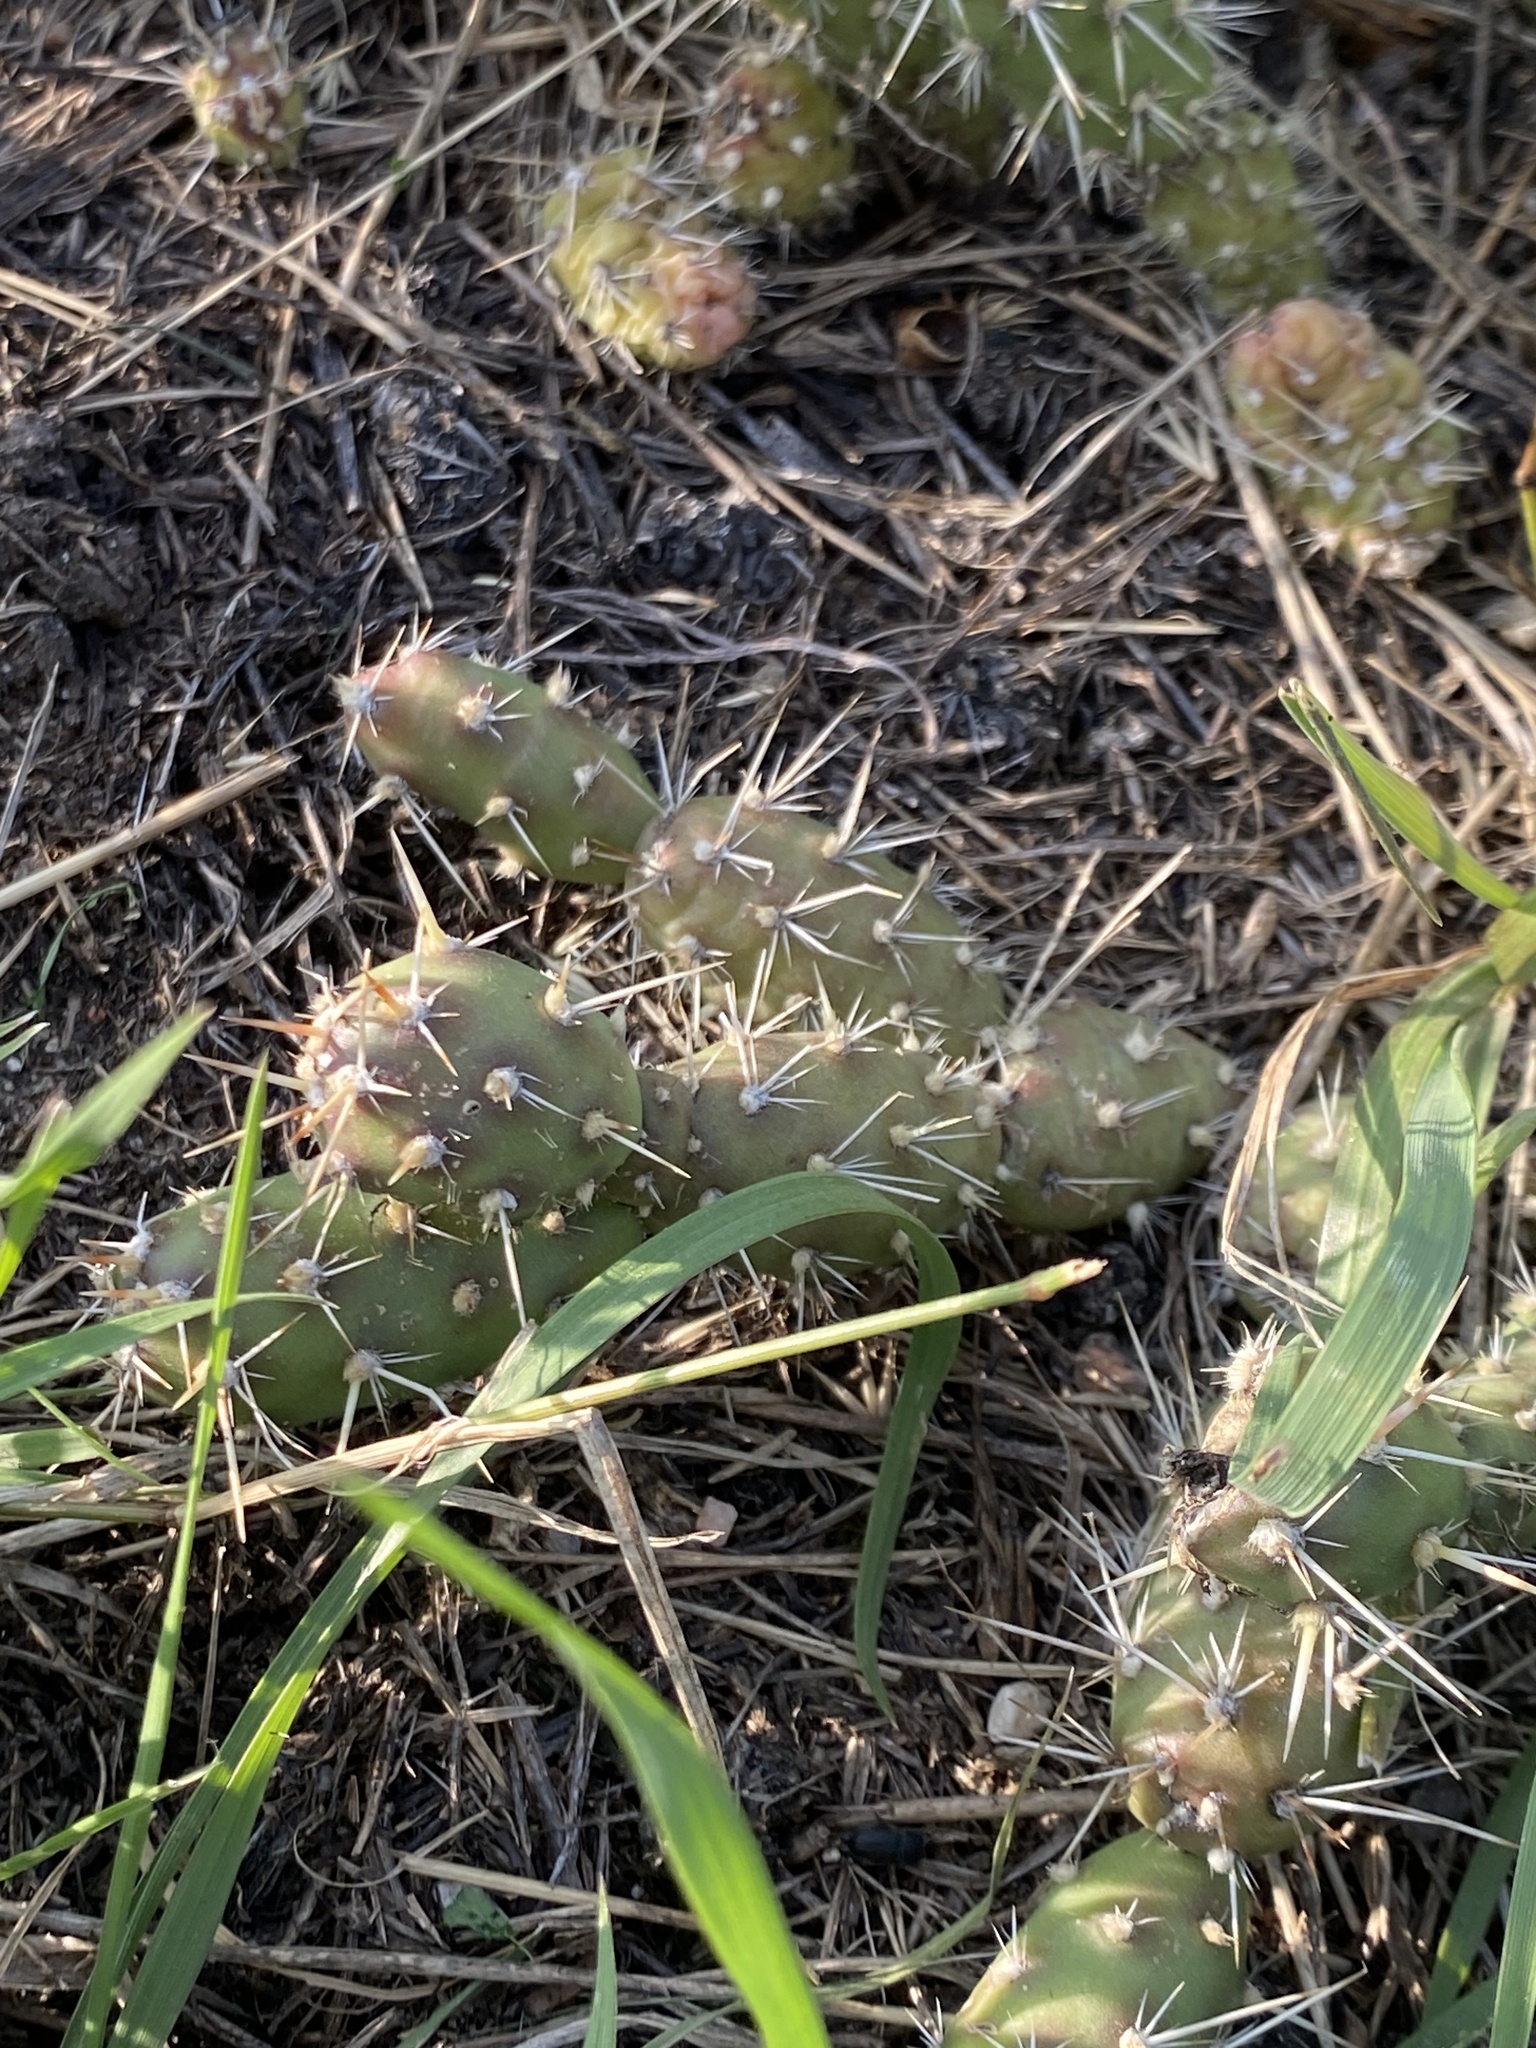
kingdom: Plantae
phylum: Tracheophyta
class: Magnoliopsida
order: Caryophyllales
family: Cactaceae
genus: Opuntia
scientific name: Opuntia fragilis
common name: Brittle cactus
